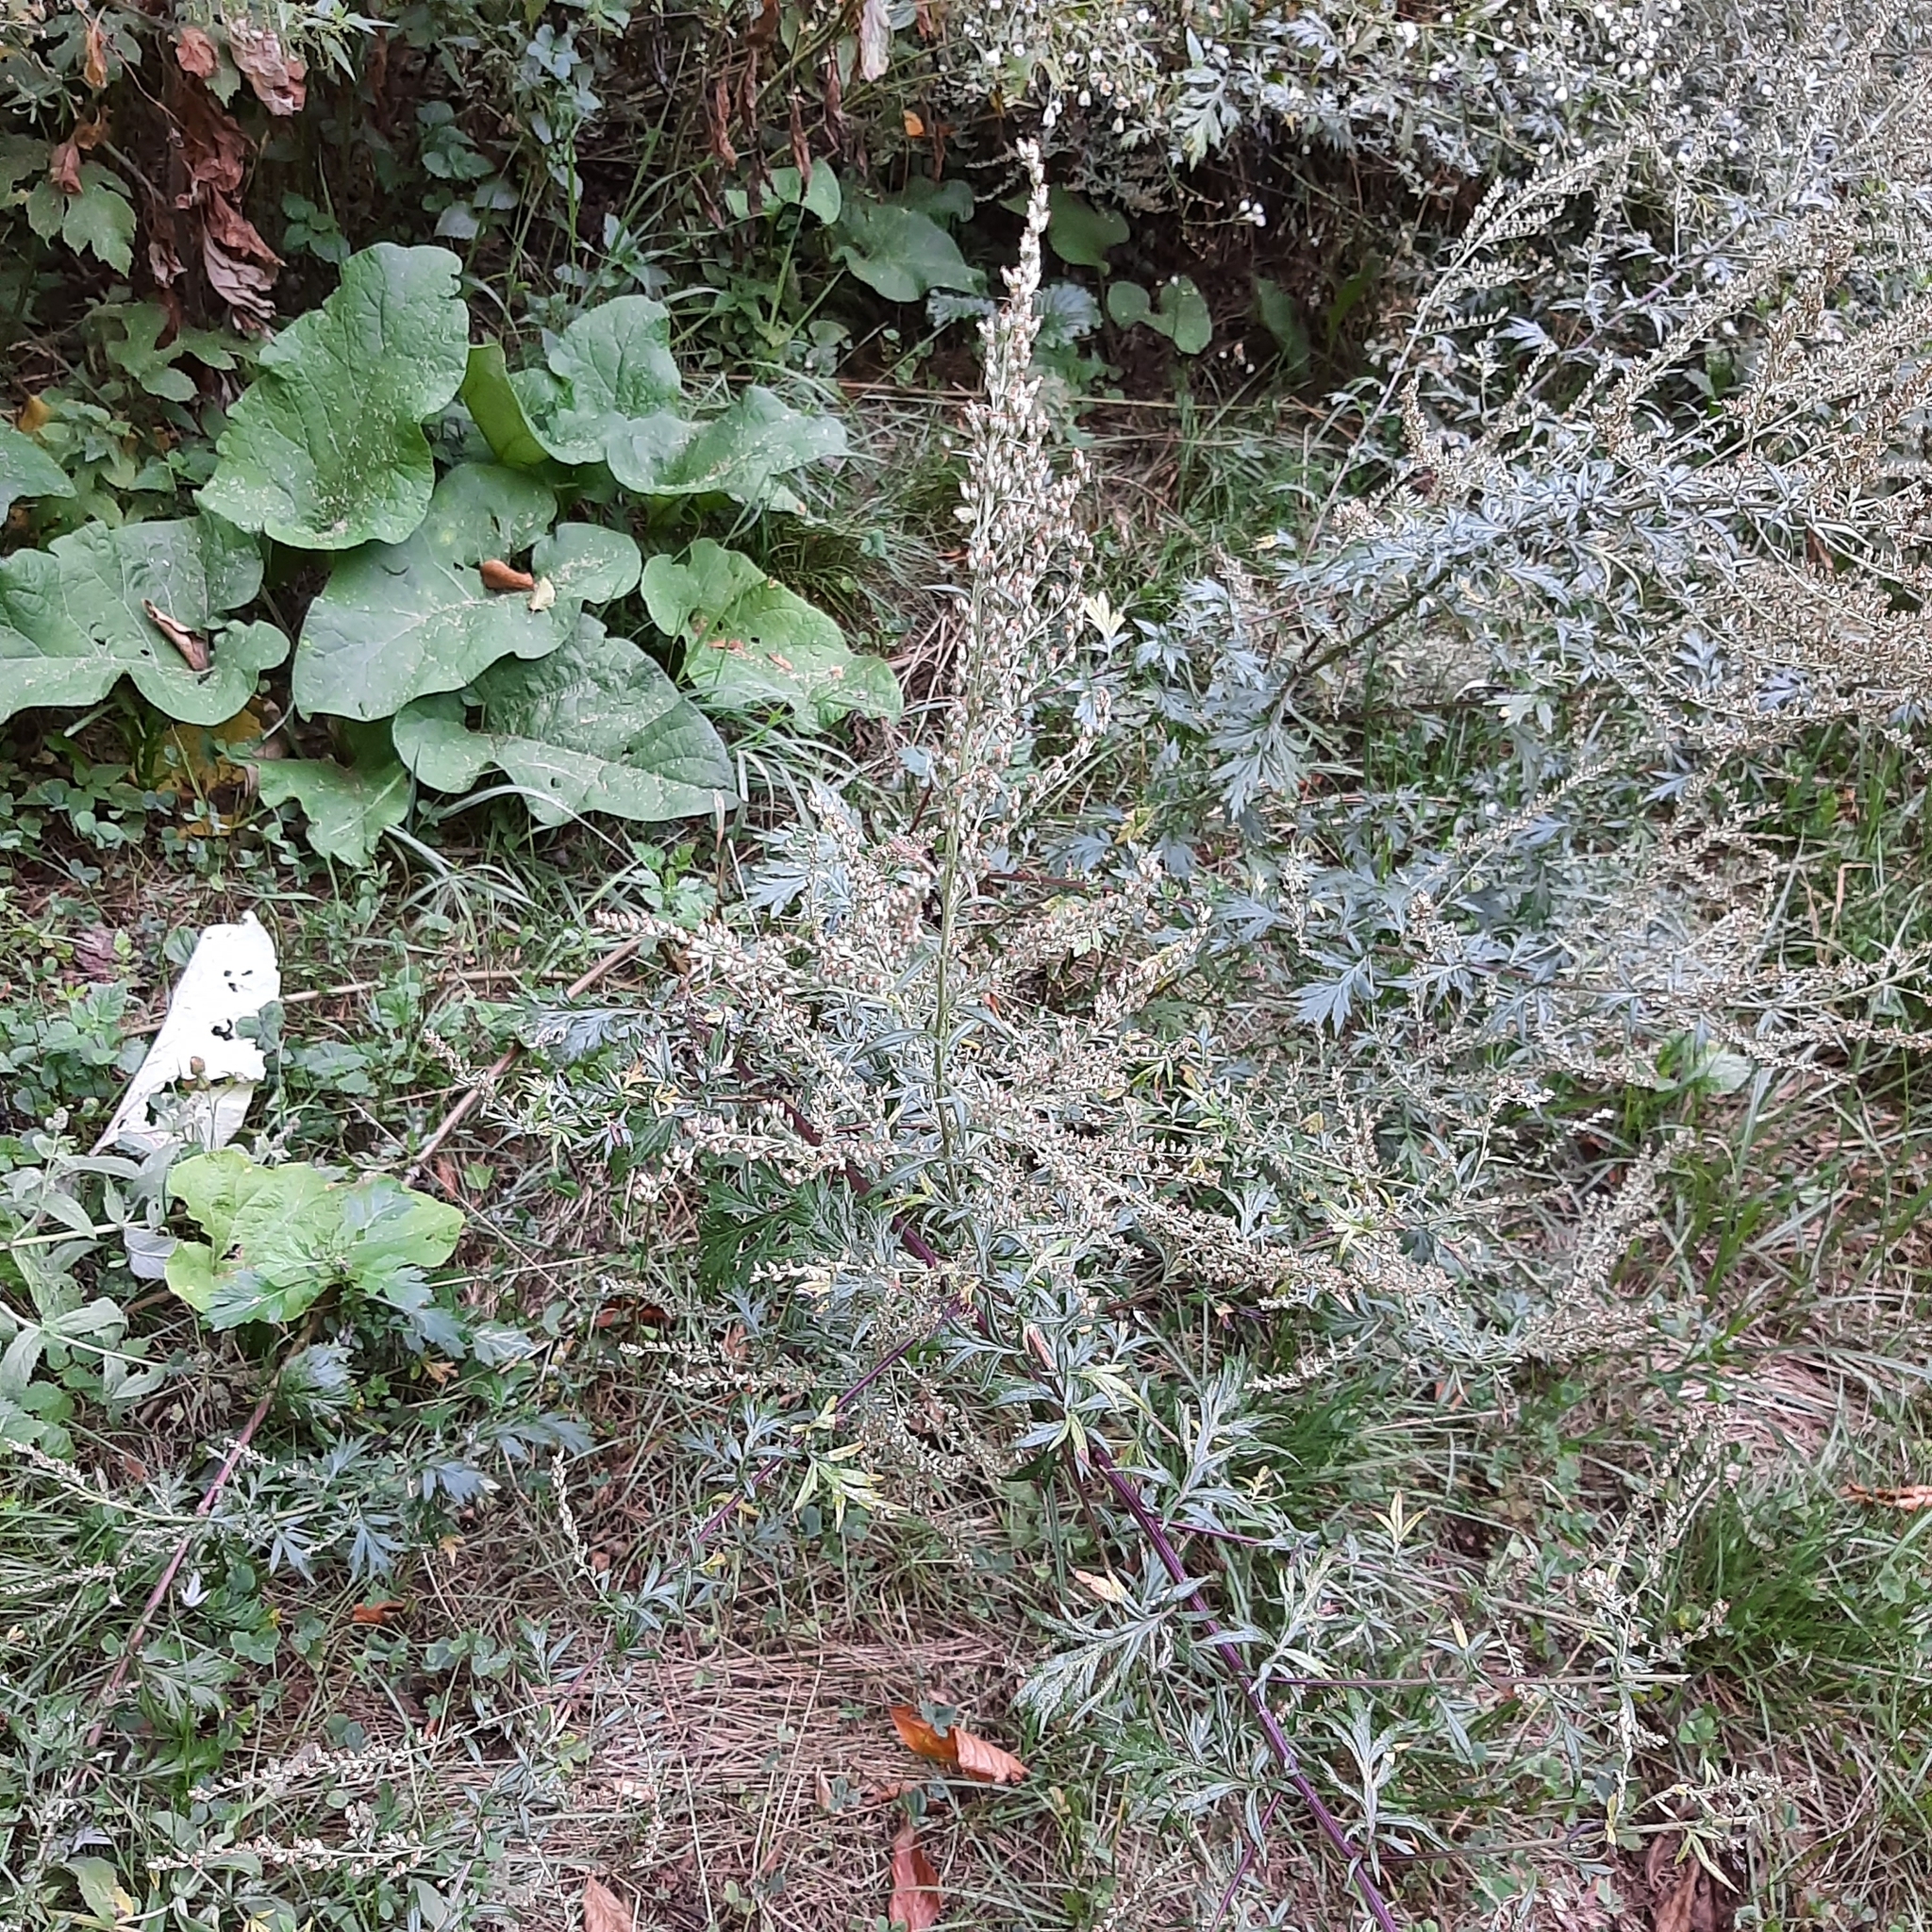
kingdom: Plantae
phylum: Tracheophyta
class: Magnoliopsida
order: Asterales
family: Asteraceae
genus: Artemisia
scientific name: Artemisia vulgaris
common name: Mugwort
